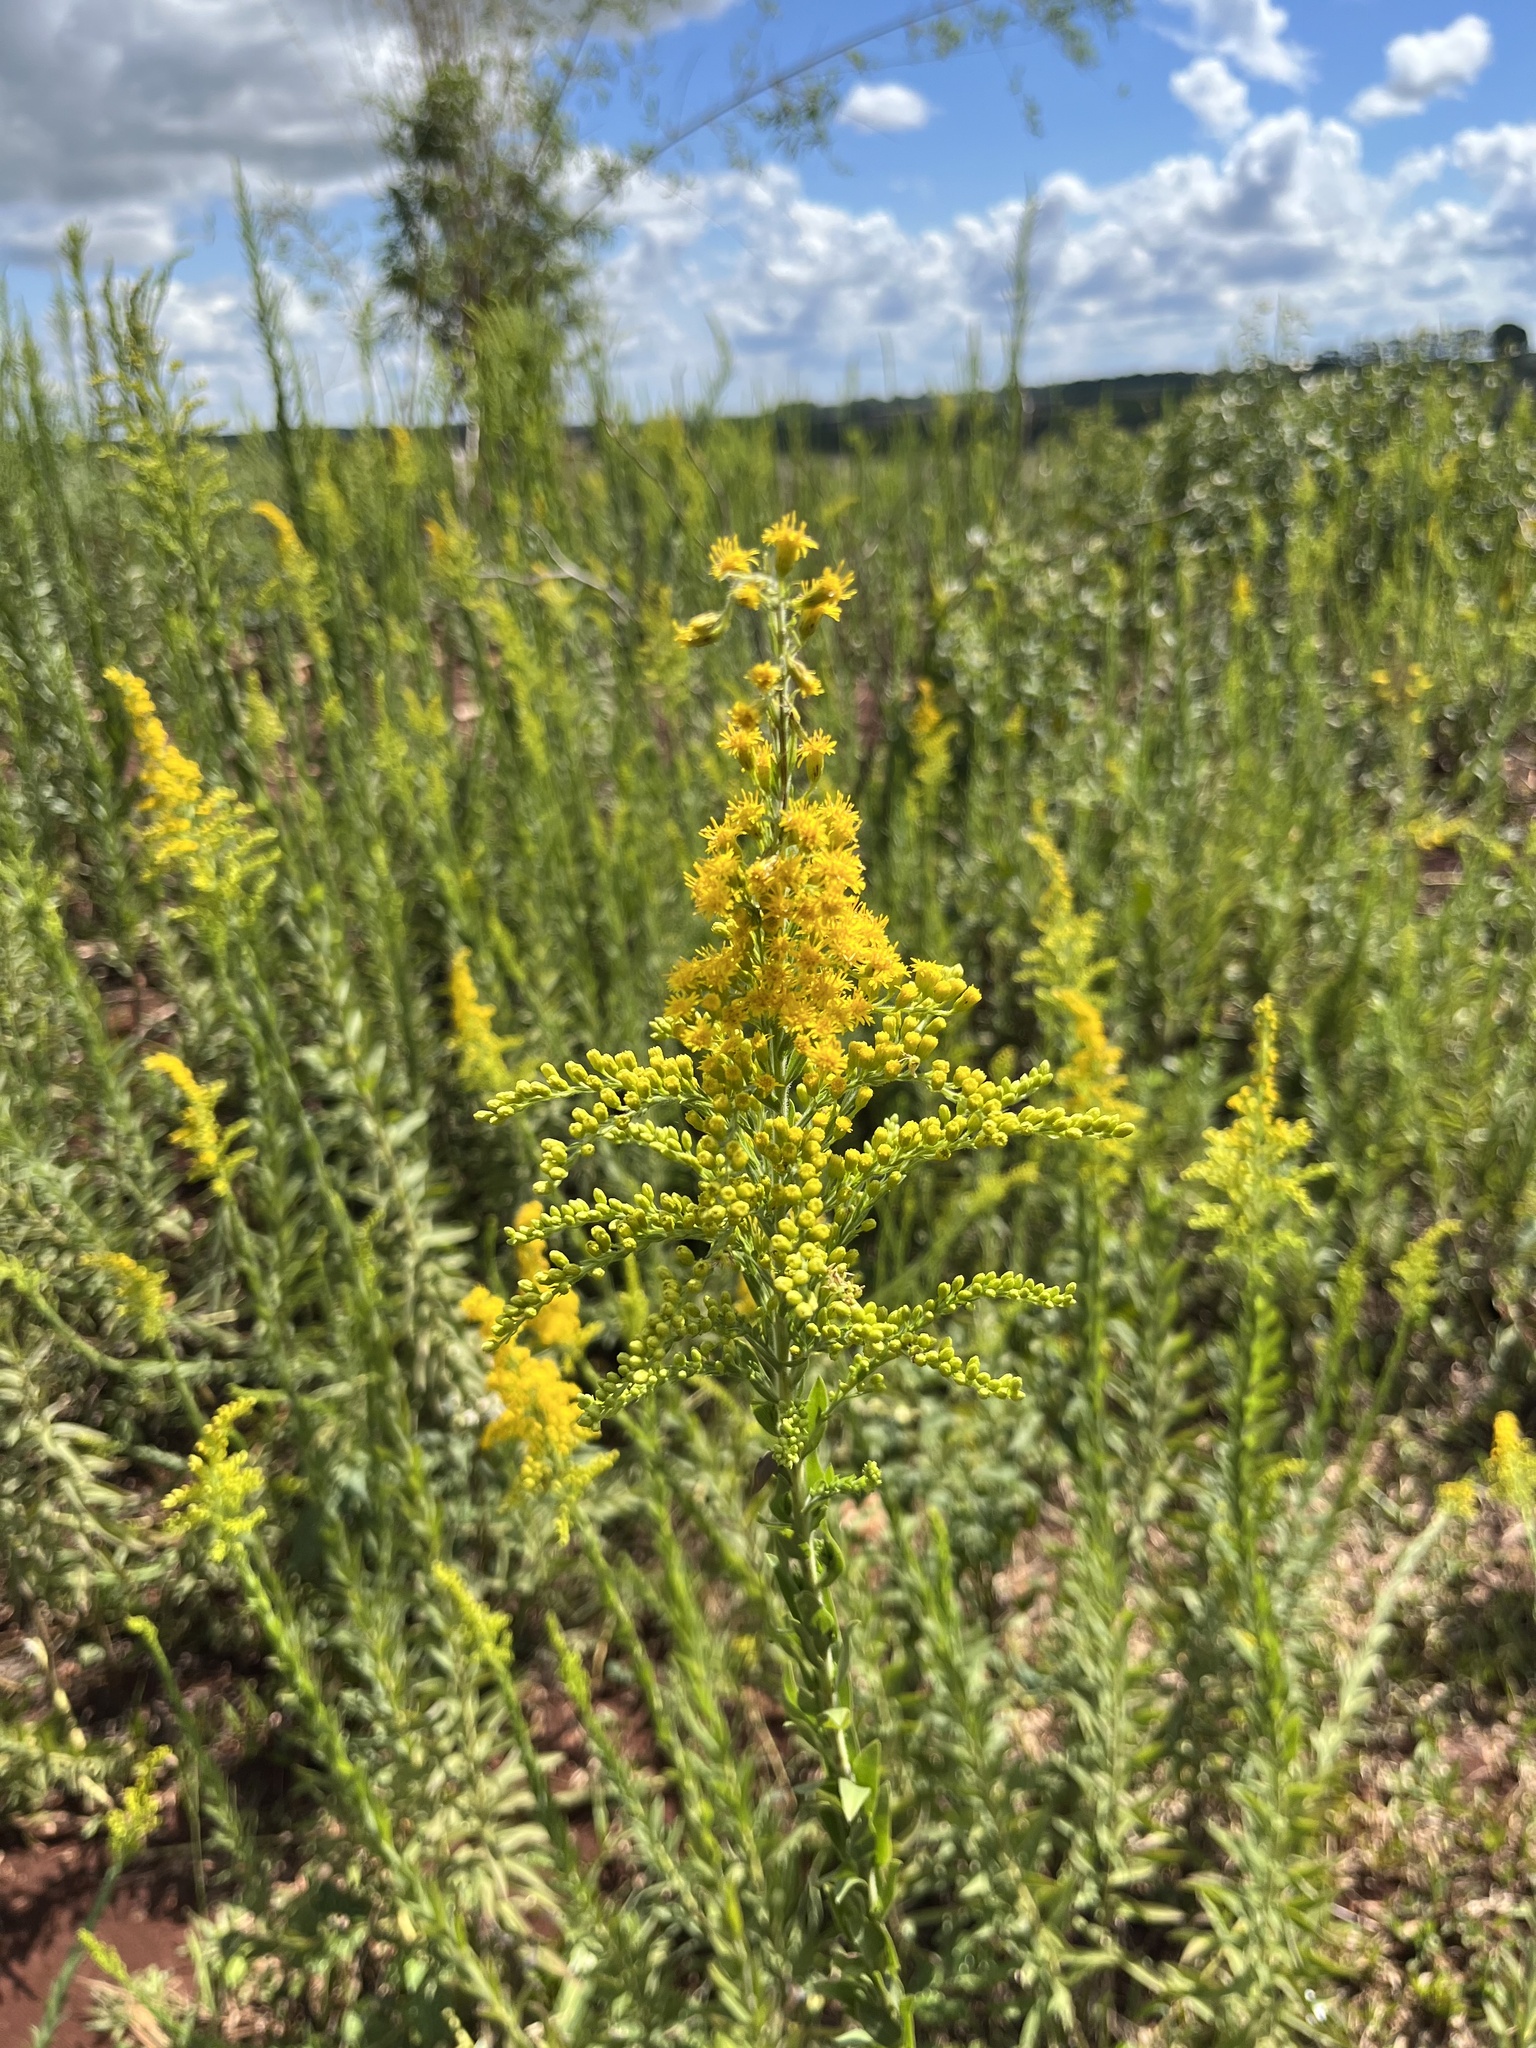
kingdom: Plantae
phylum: Tracheophyta
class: Magnoliopsida
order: Asterales
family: Asteraceae
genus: Solidago
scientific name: Solidago chilensis
